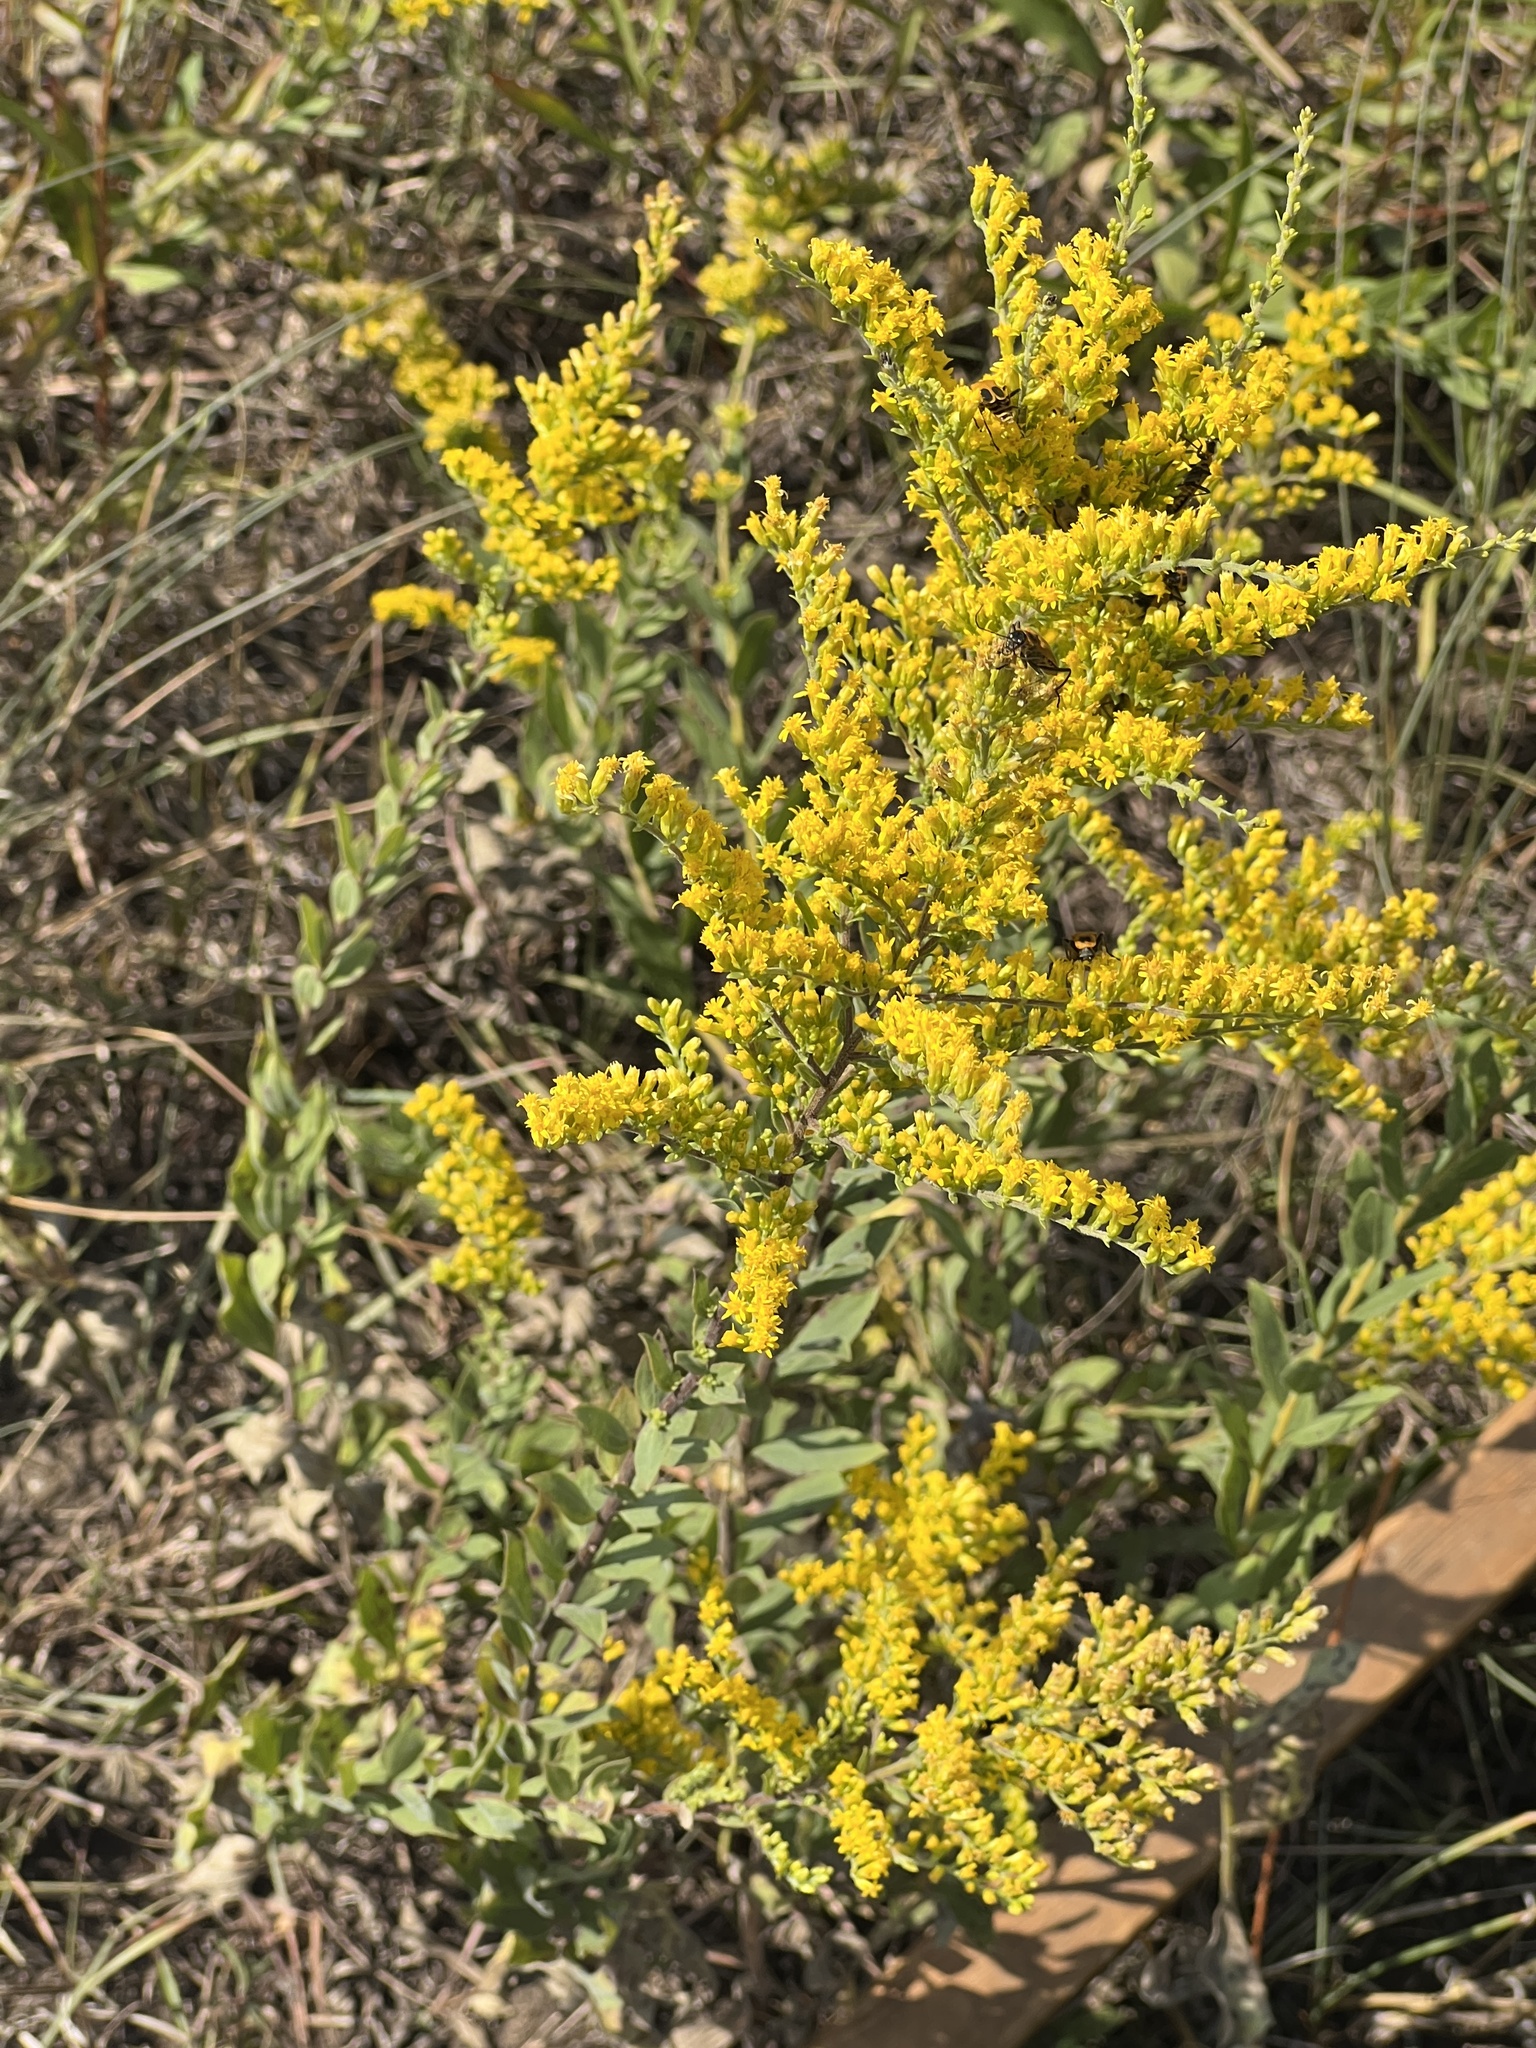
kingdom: Plantae
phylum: Tracheophyta
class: Magnoliopsida
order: Asterales
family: Asteraceae
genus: Solidago
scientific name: Solidago radula
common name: Western rough goldenrod
